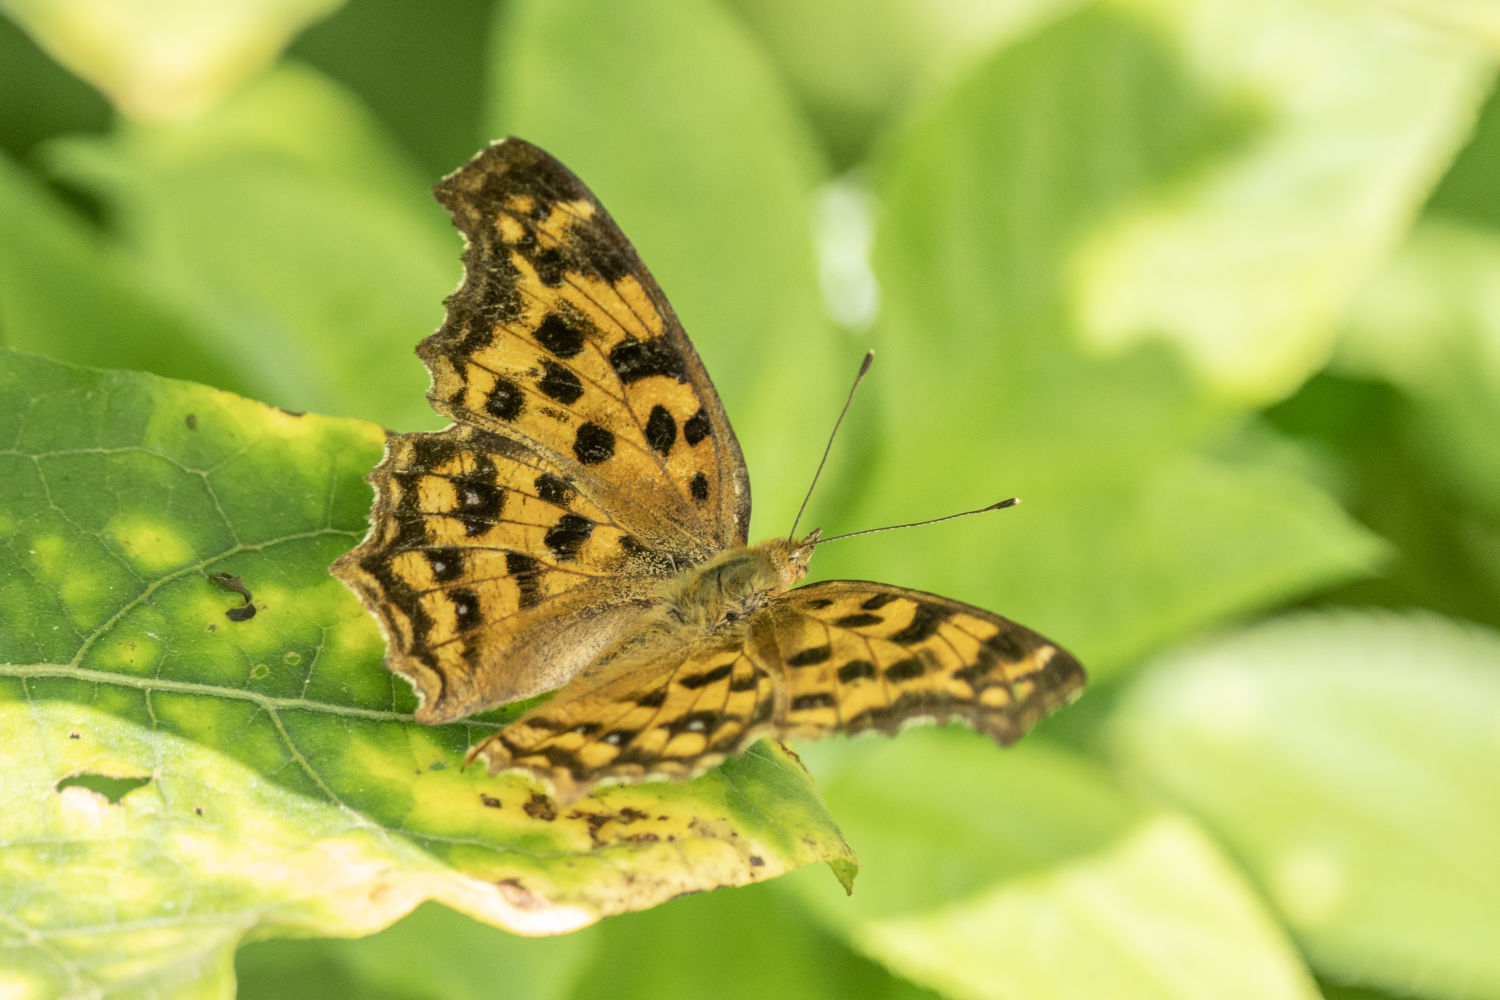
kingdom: Animalia
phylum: Arthropoda
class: Insecta
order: Lepidoptera
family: Nymphalidae
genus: Polygonia
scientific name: Polygonia c-aureum
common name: Asian comma
